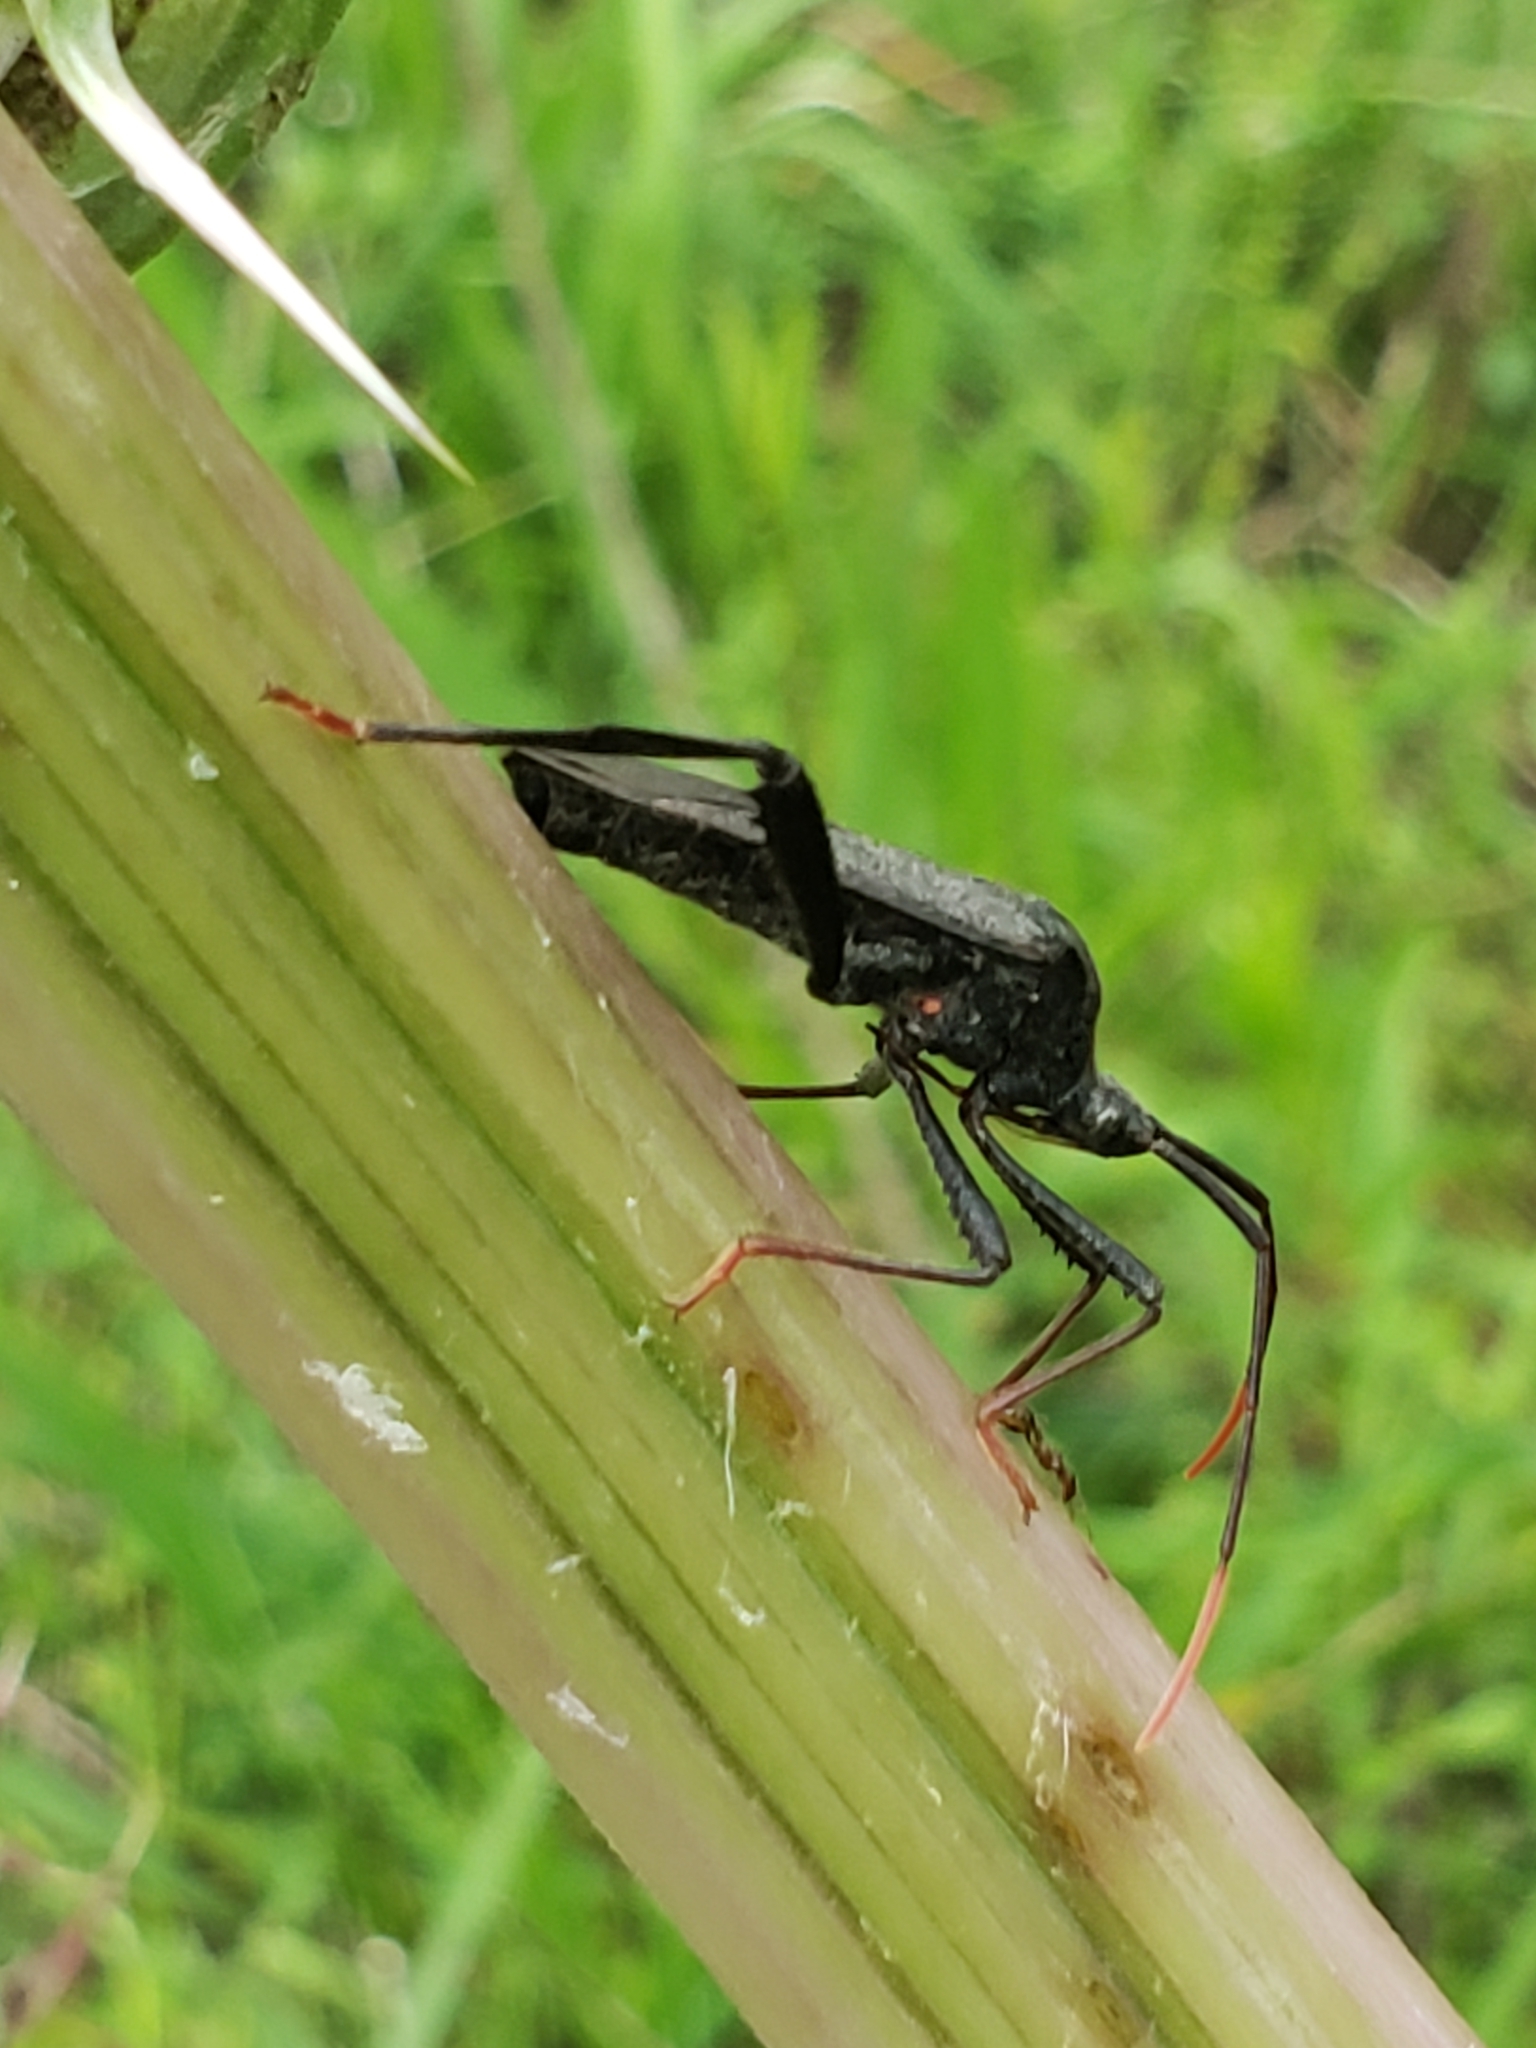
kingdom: Animalia
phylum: Arthropoda
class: Insecta
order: Hemiptera
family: Coreidae
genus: Acanthocephala
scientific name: Acanthocephala terminalis
